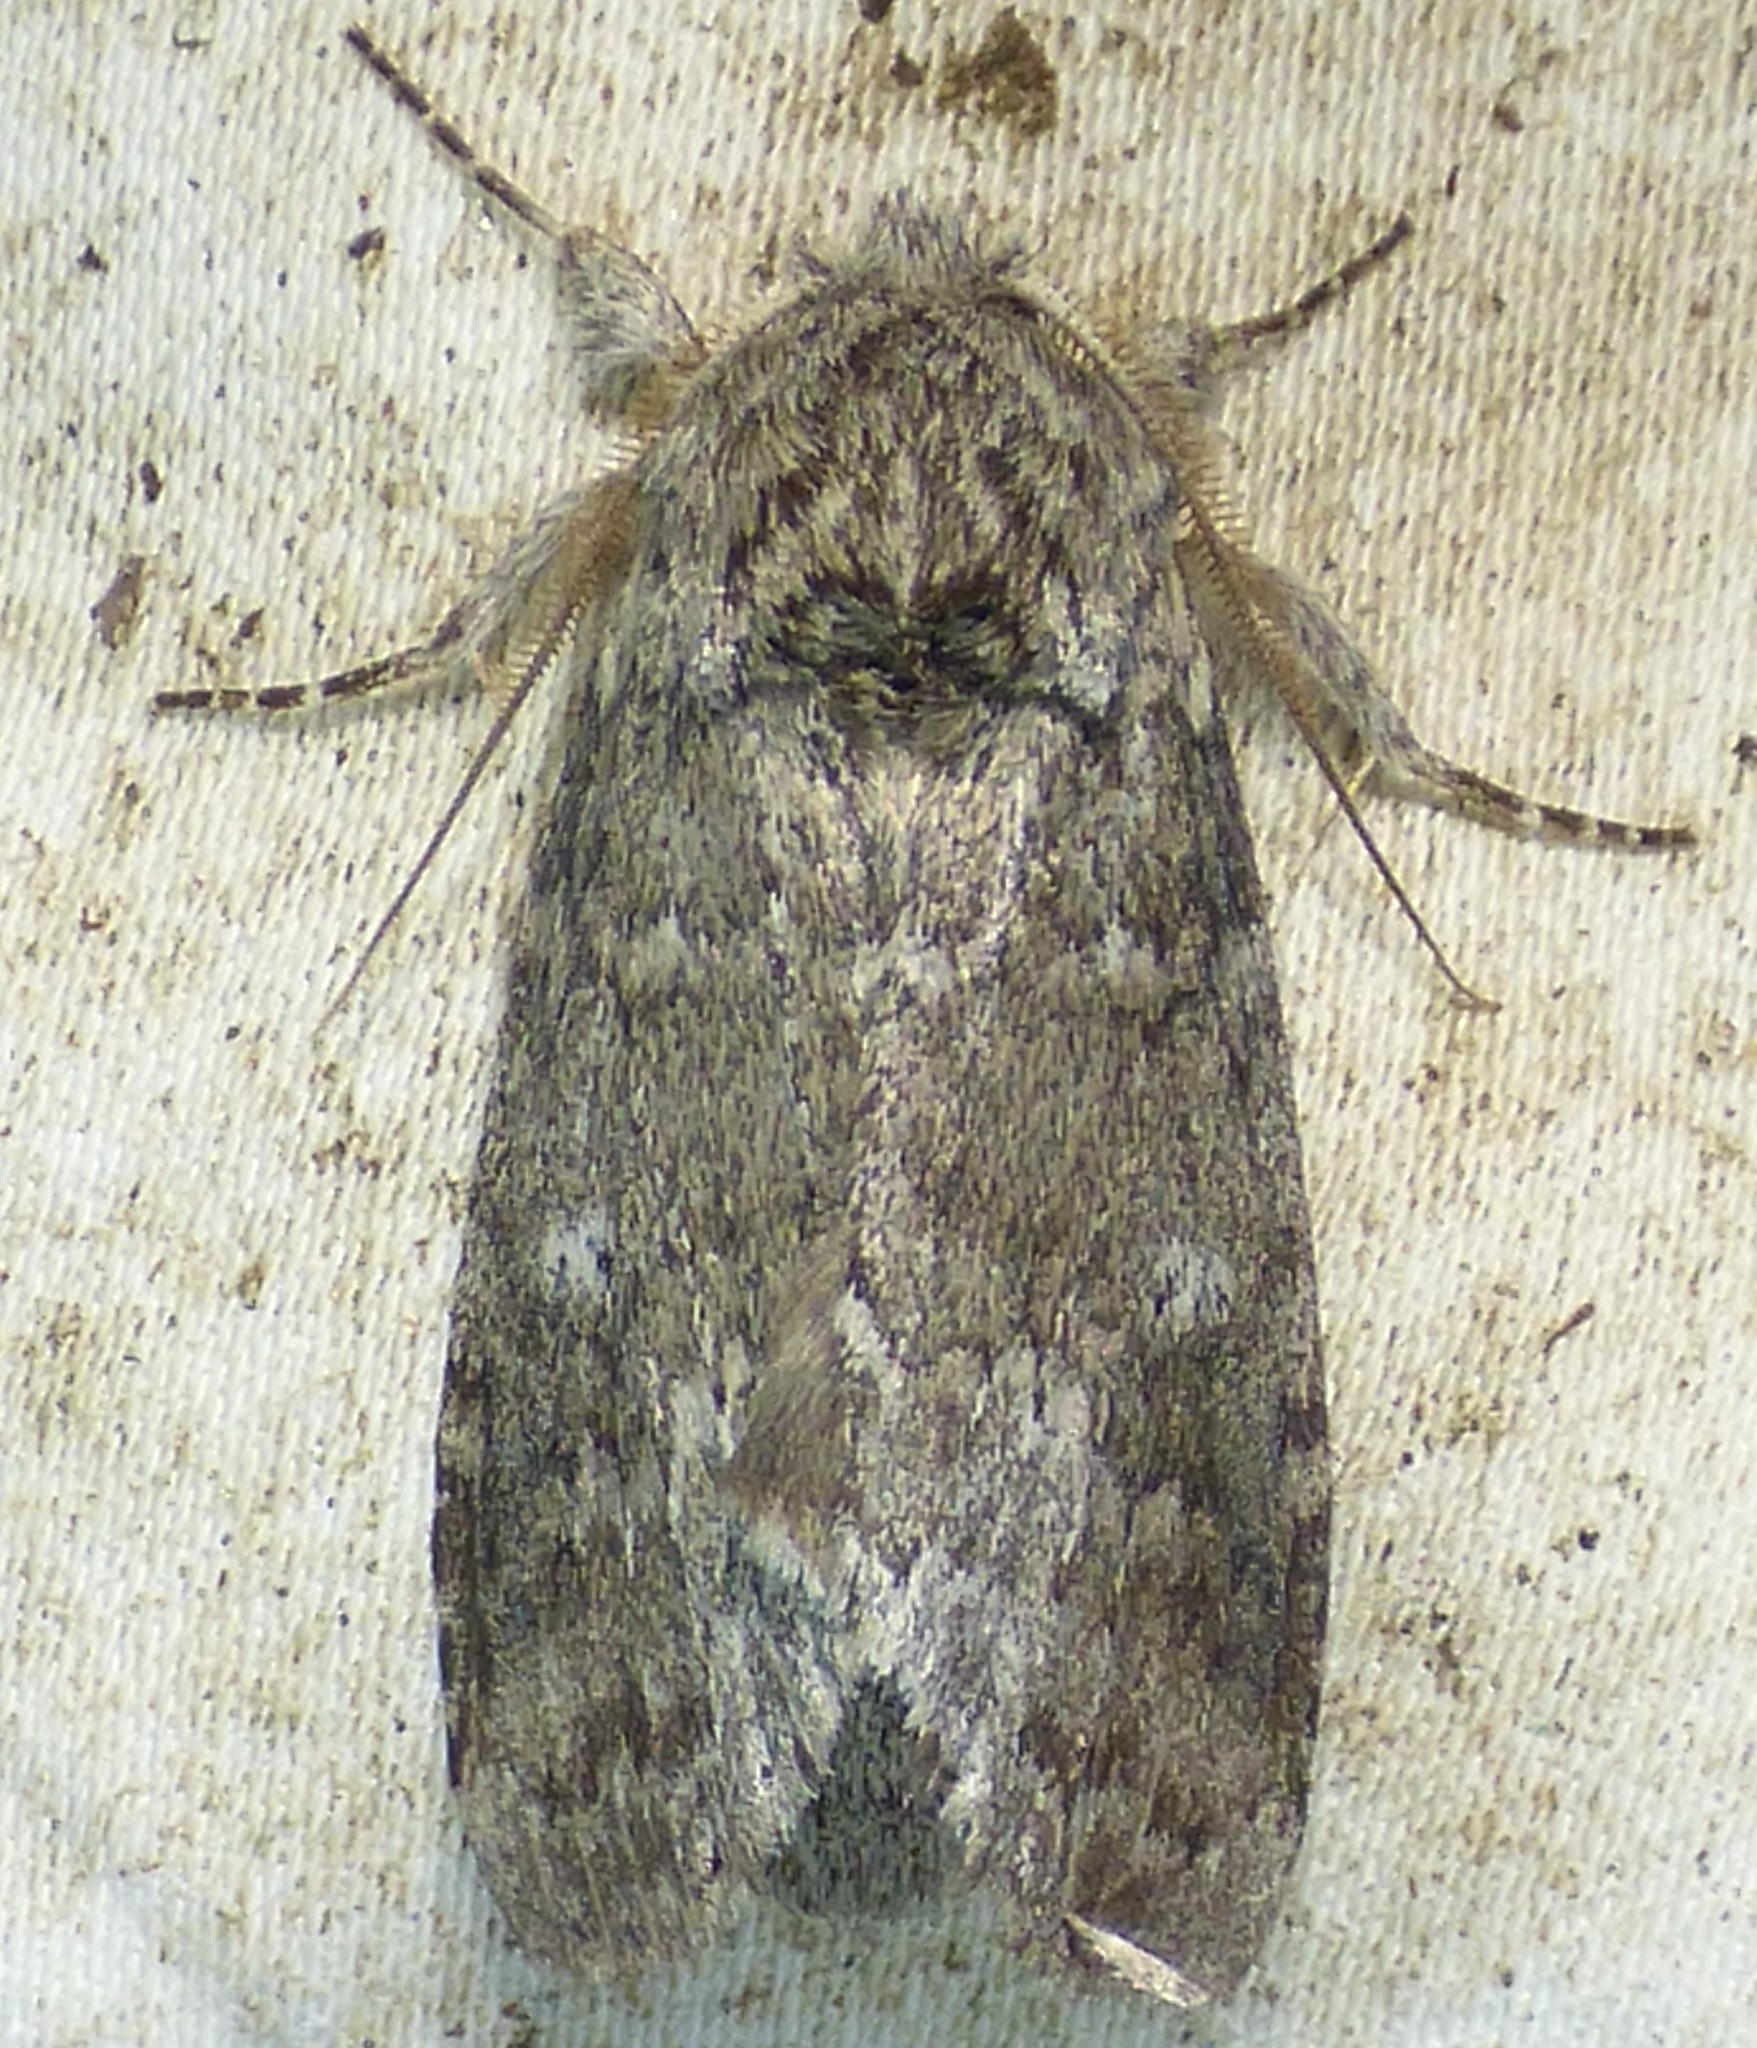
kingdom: Animalia
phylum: Arthropoda
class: Insecta
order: Lepidoptera
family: Notodontidae
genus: Lochmaeus
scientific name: Lochmaeus manteo
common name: Variable oakleaf caterpillar moth
